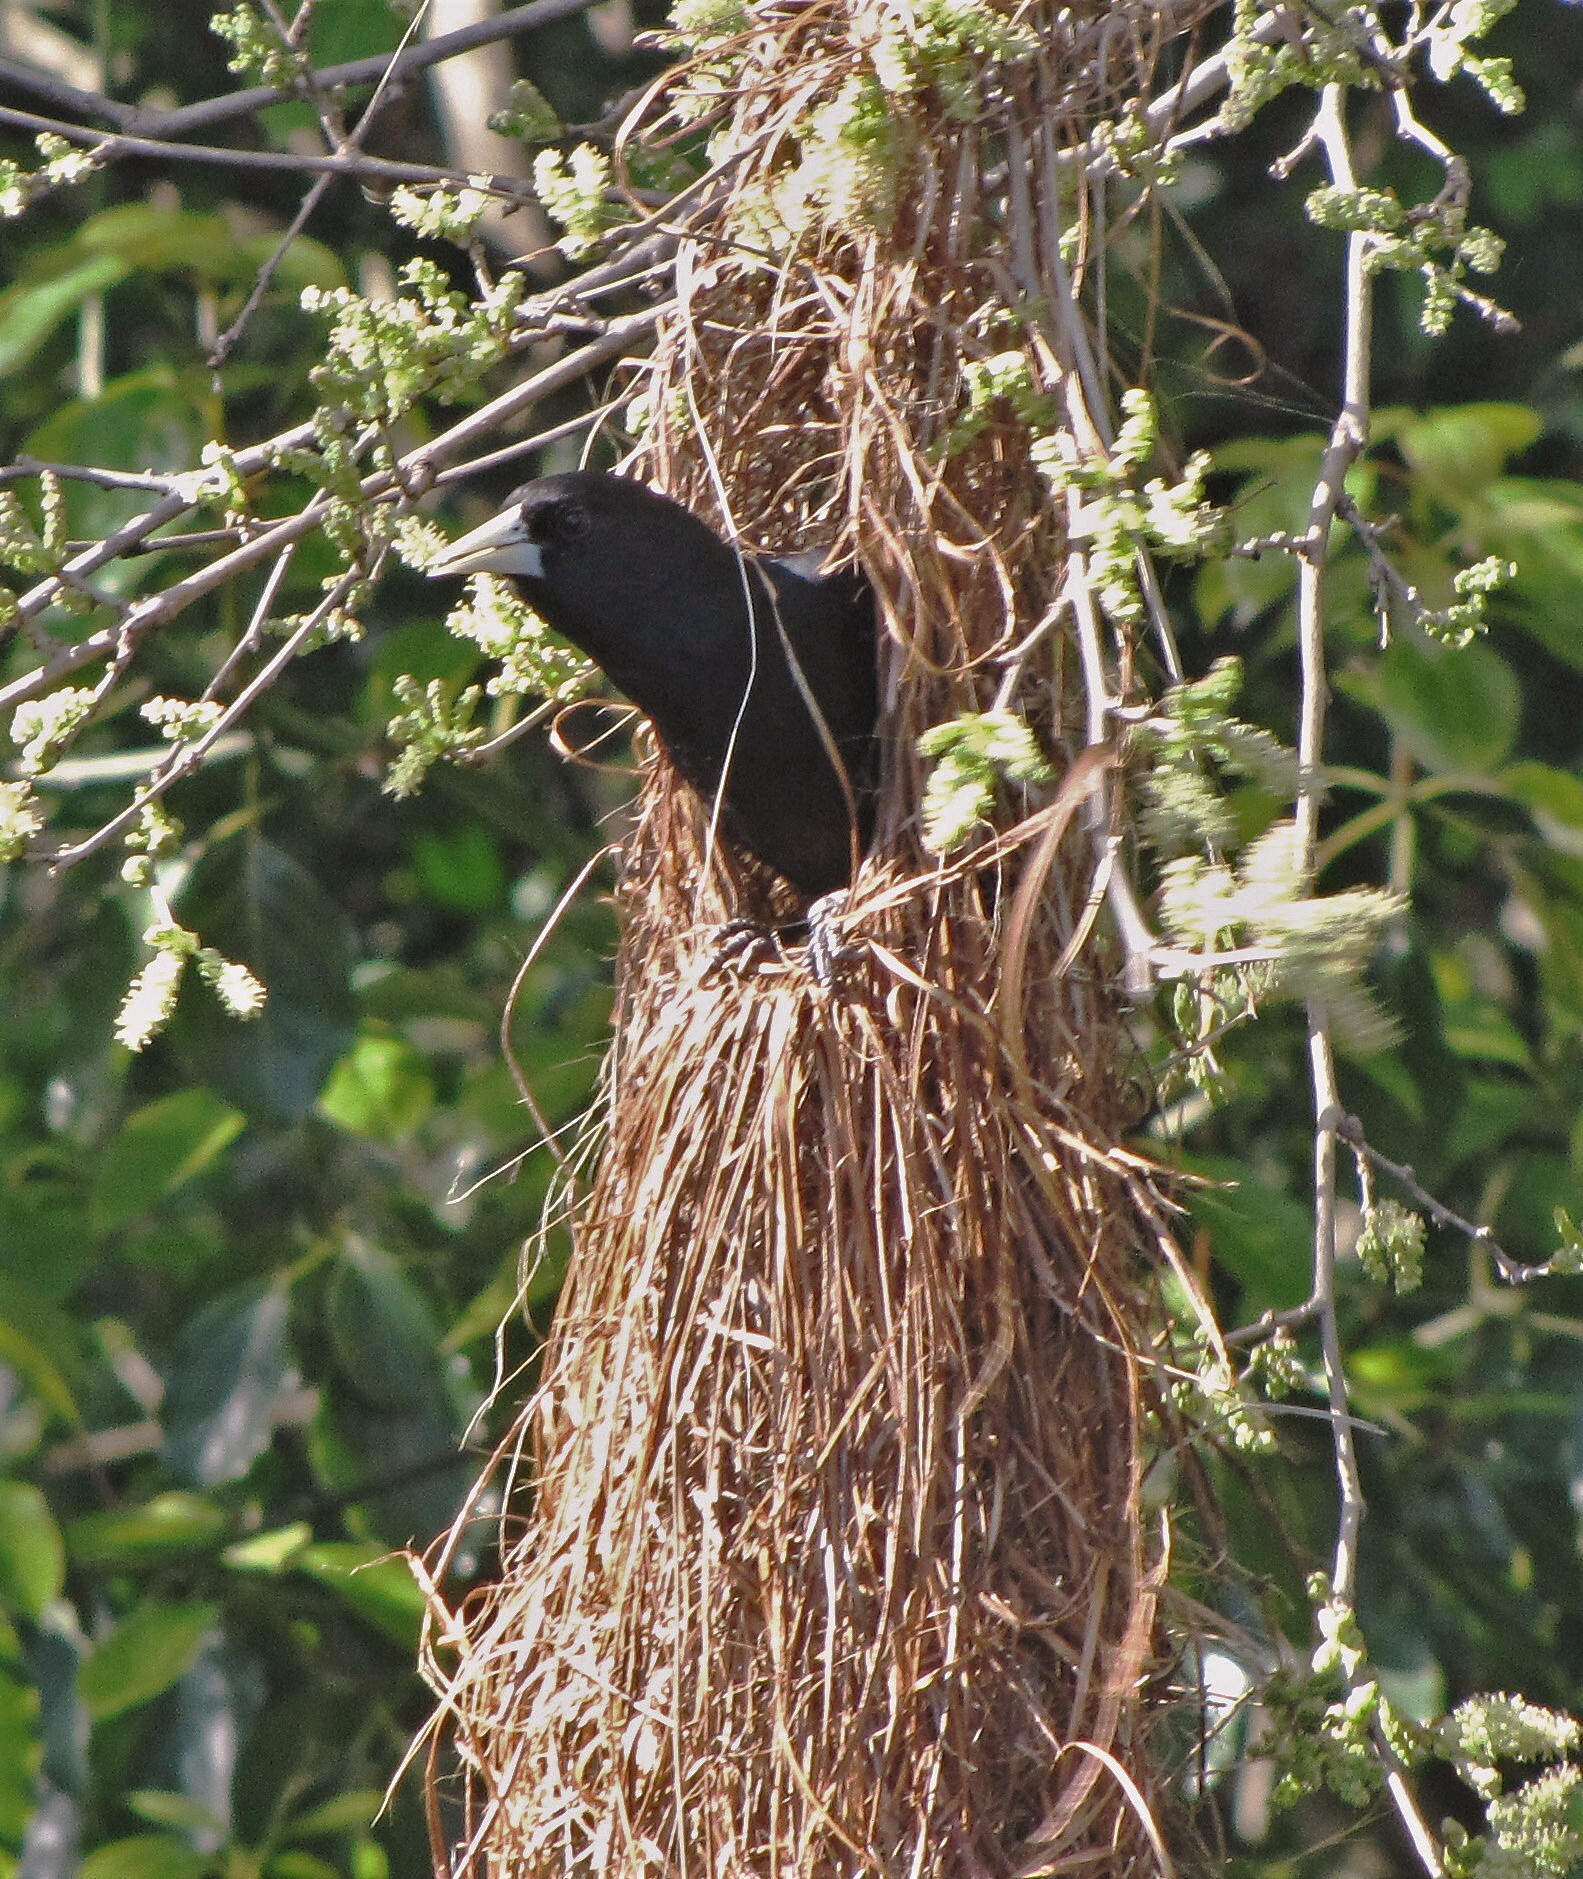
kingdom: Animalia
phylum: Chordata
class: Aves
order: Passeriformes
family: Icteridae
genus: Cacicus
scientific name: Cacicus solitarius
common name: Solitary cacique
